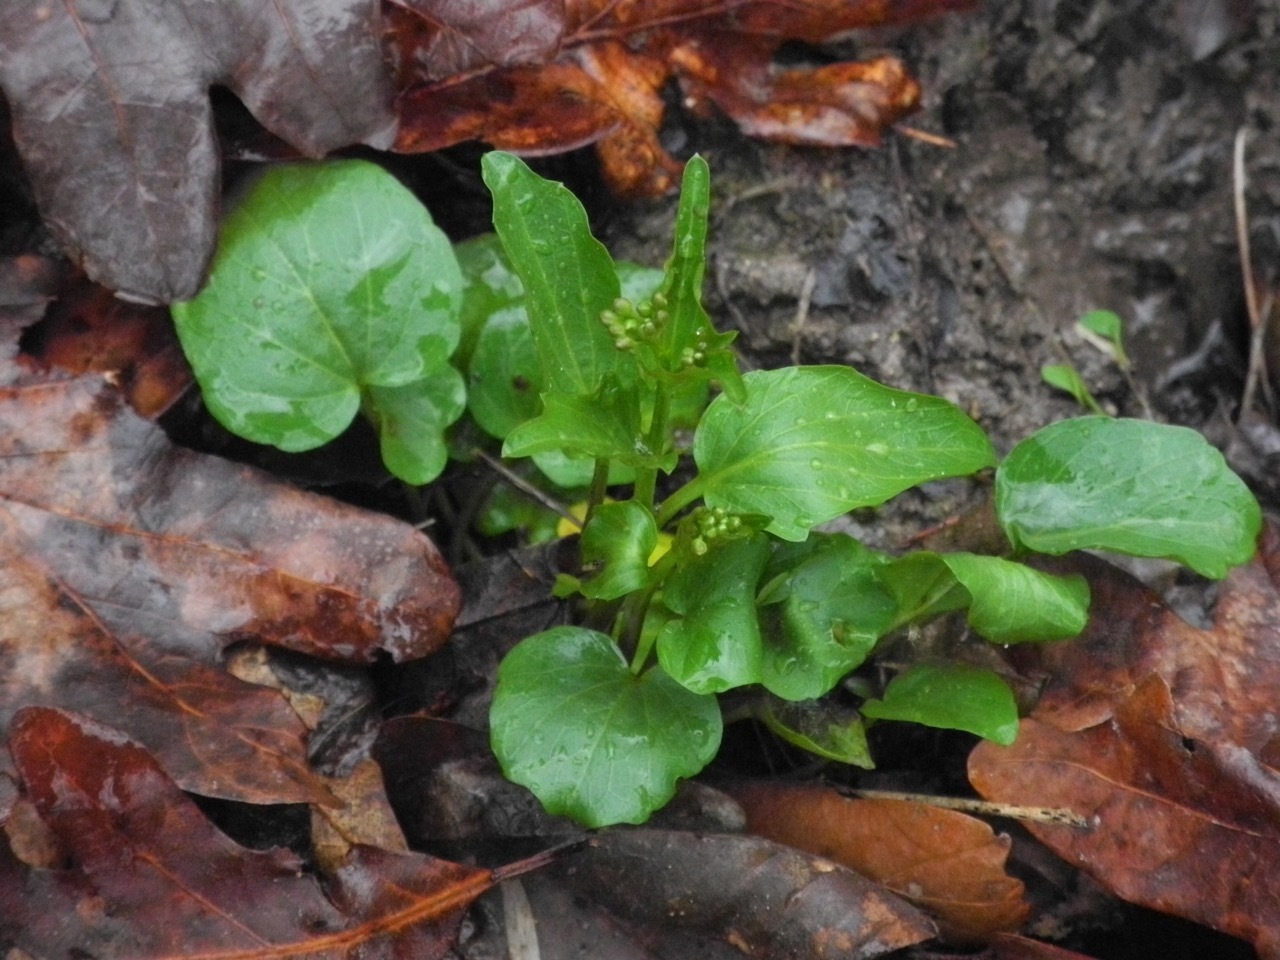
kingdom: Plantae
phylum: Tracheophyta
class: Magnoliopsida
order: Brassicales
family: Brassicaceae
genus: Cardamine
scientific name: Cardamine bulbosa
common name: Spring cress
